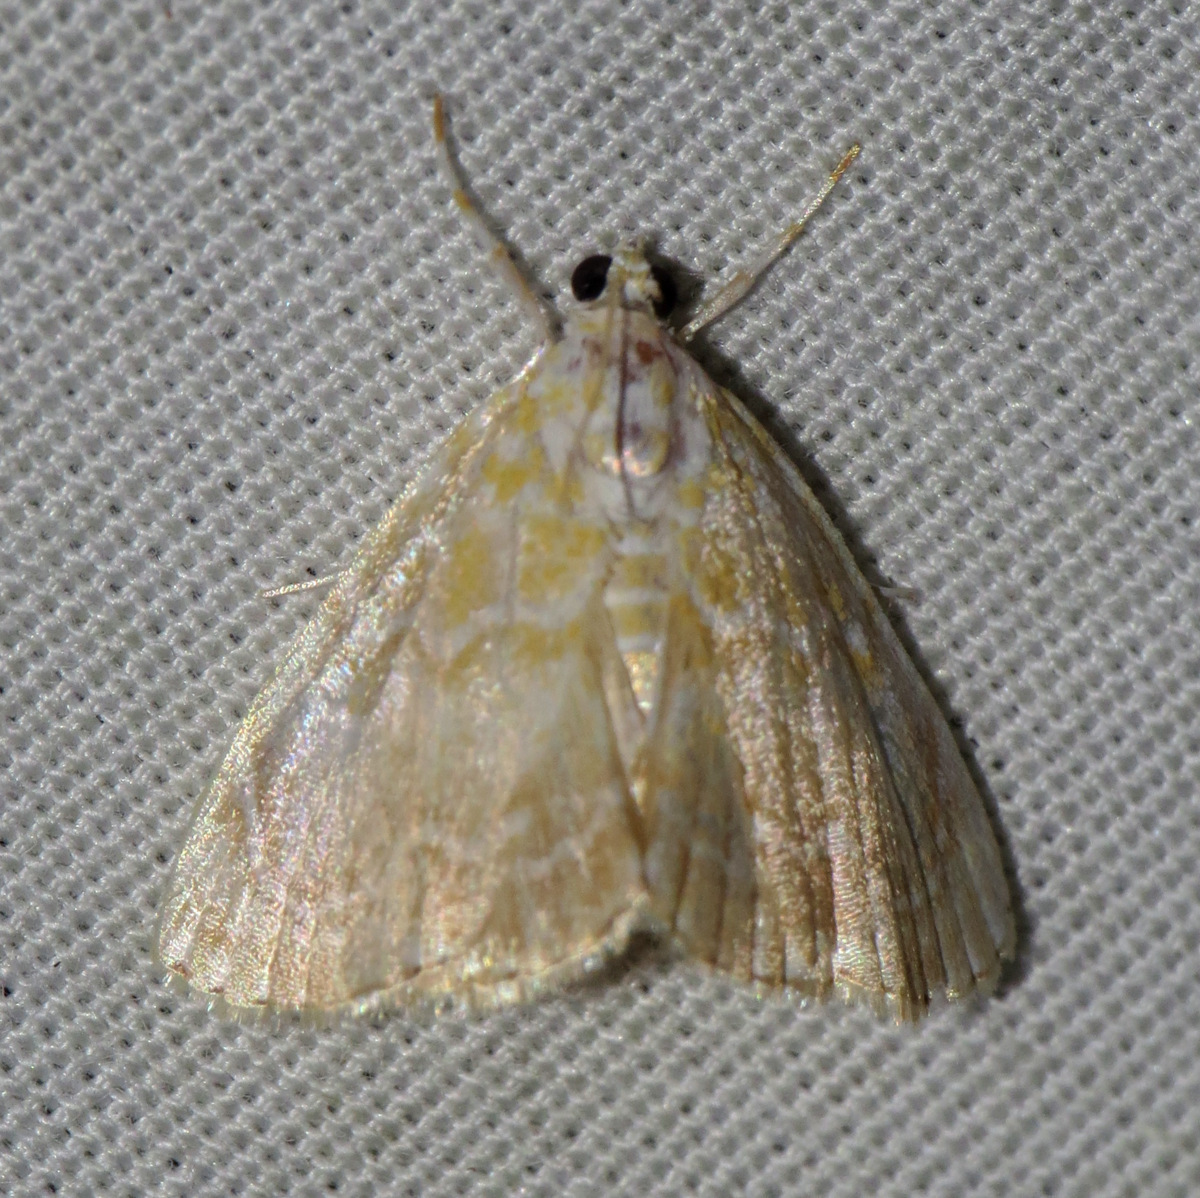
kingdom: Animalia
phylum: Arthropoda
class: Insecta
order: Lepidoptera
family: Crambidae
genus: Glaphyria
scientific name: Glaphyria glaphyralis
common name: Common glaphyria moth
